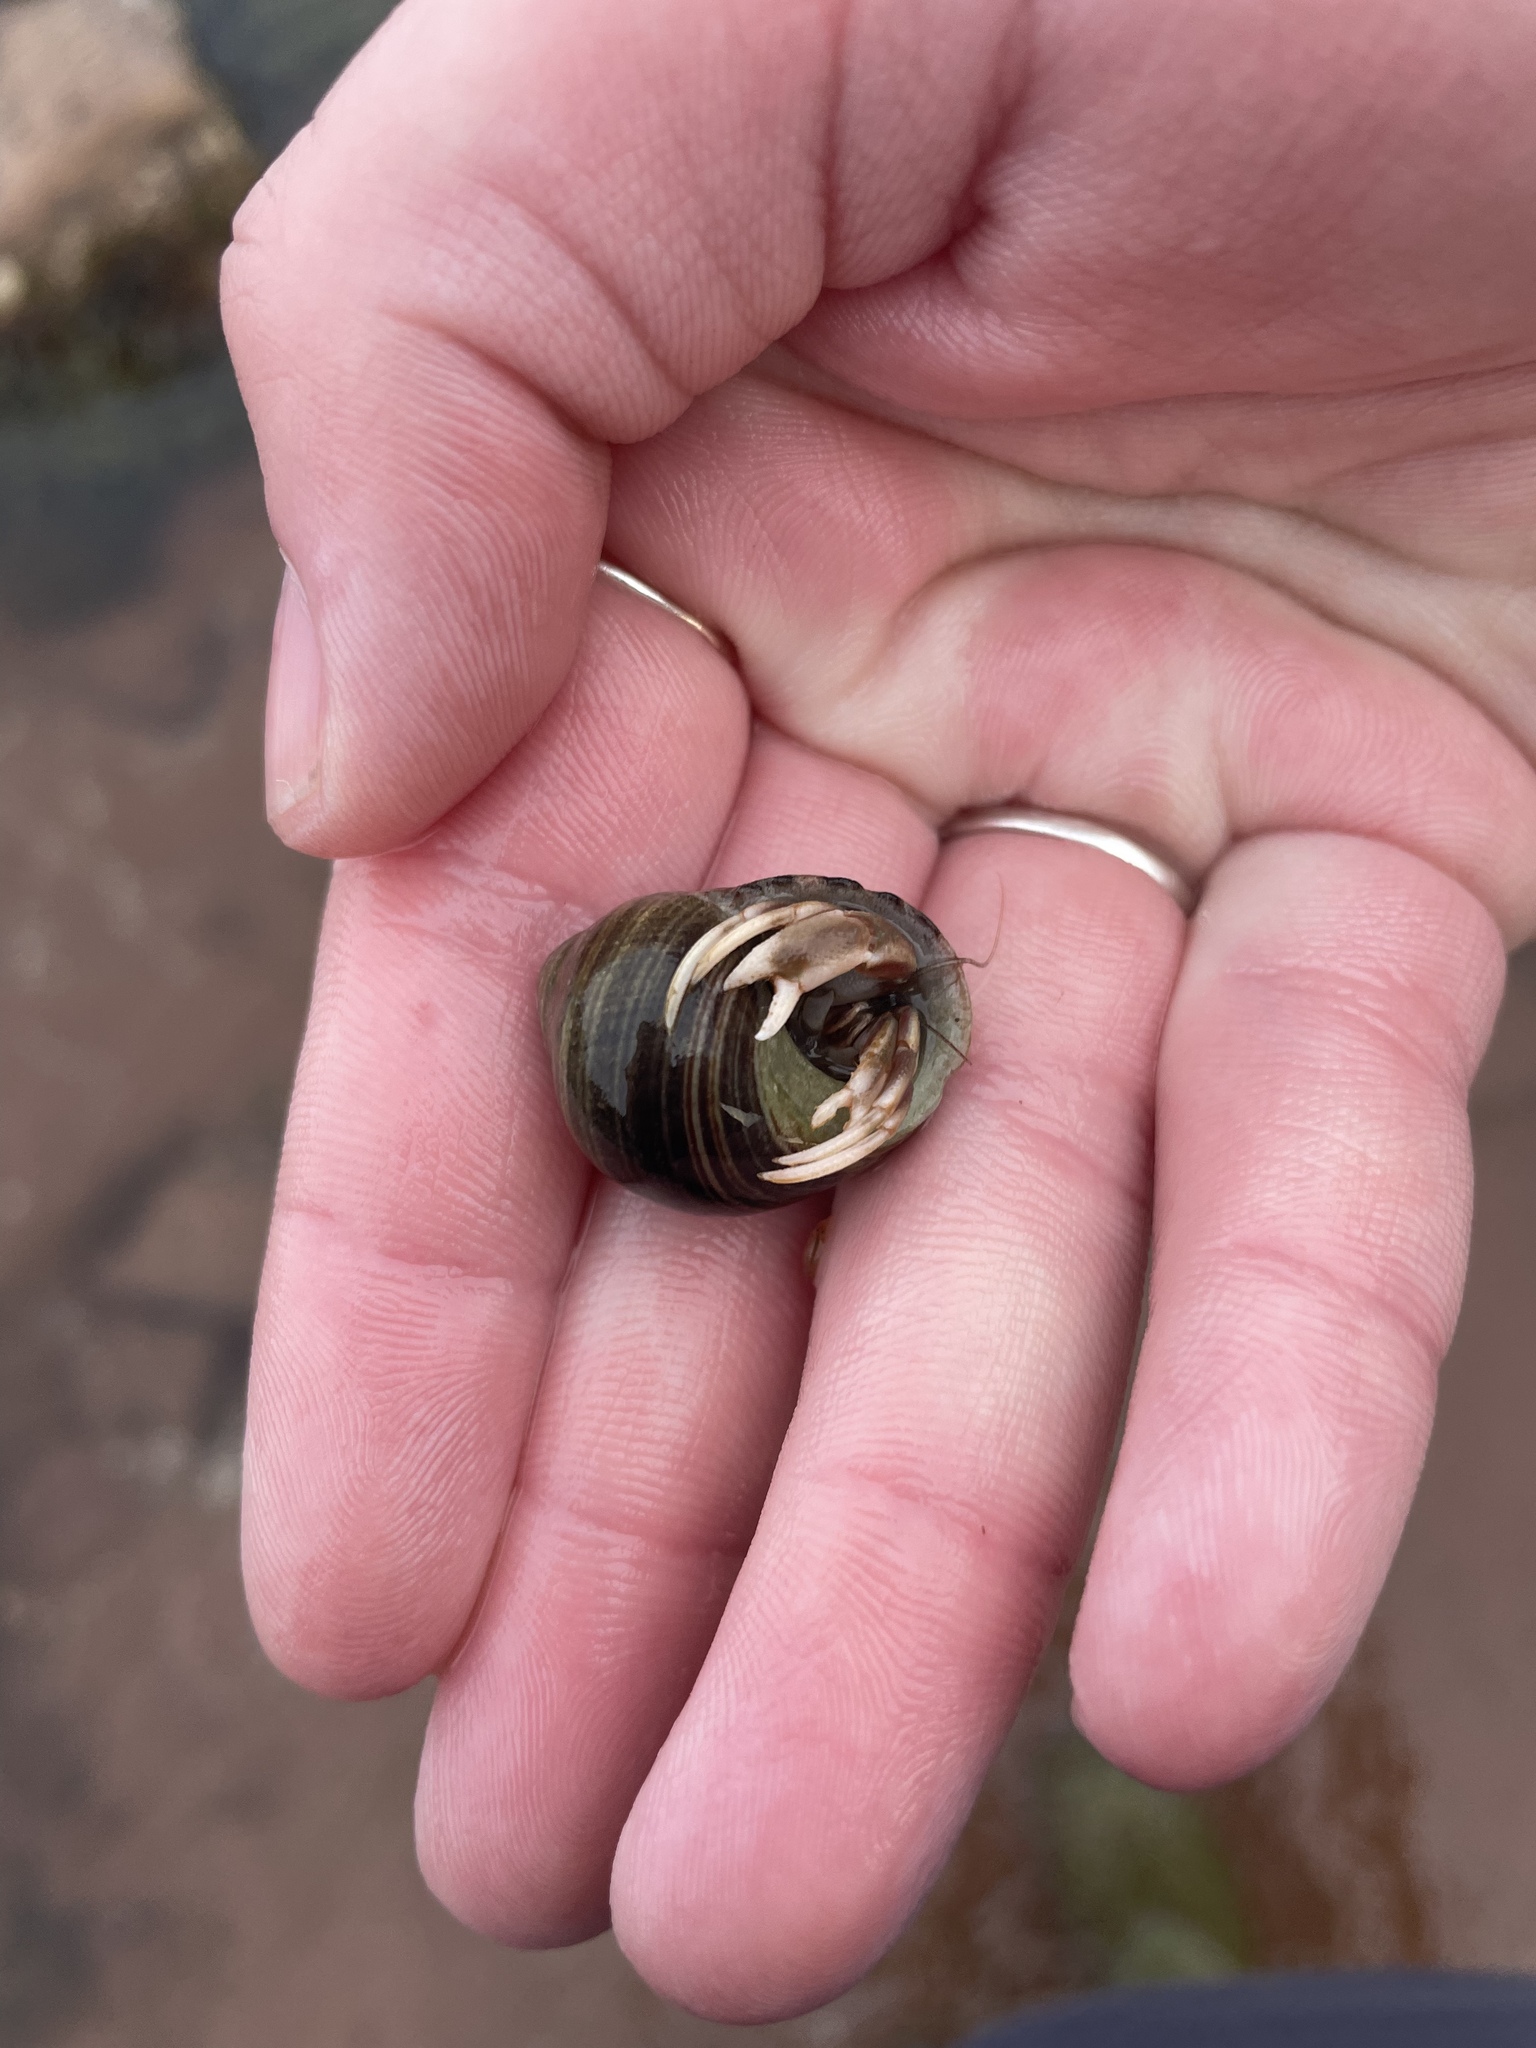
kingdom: Animalia
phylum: Arthropoda
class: Malacostraca
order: Decapoda
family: Paguridae
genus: Pagurus
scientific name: Pagurus longicarpus
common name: Long-armed hermit crab
